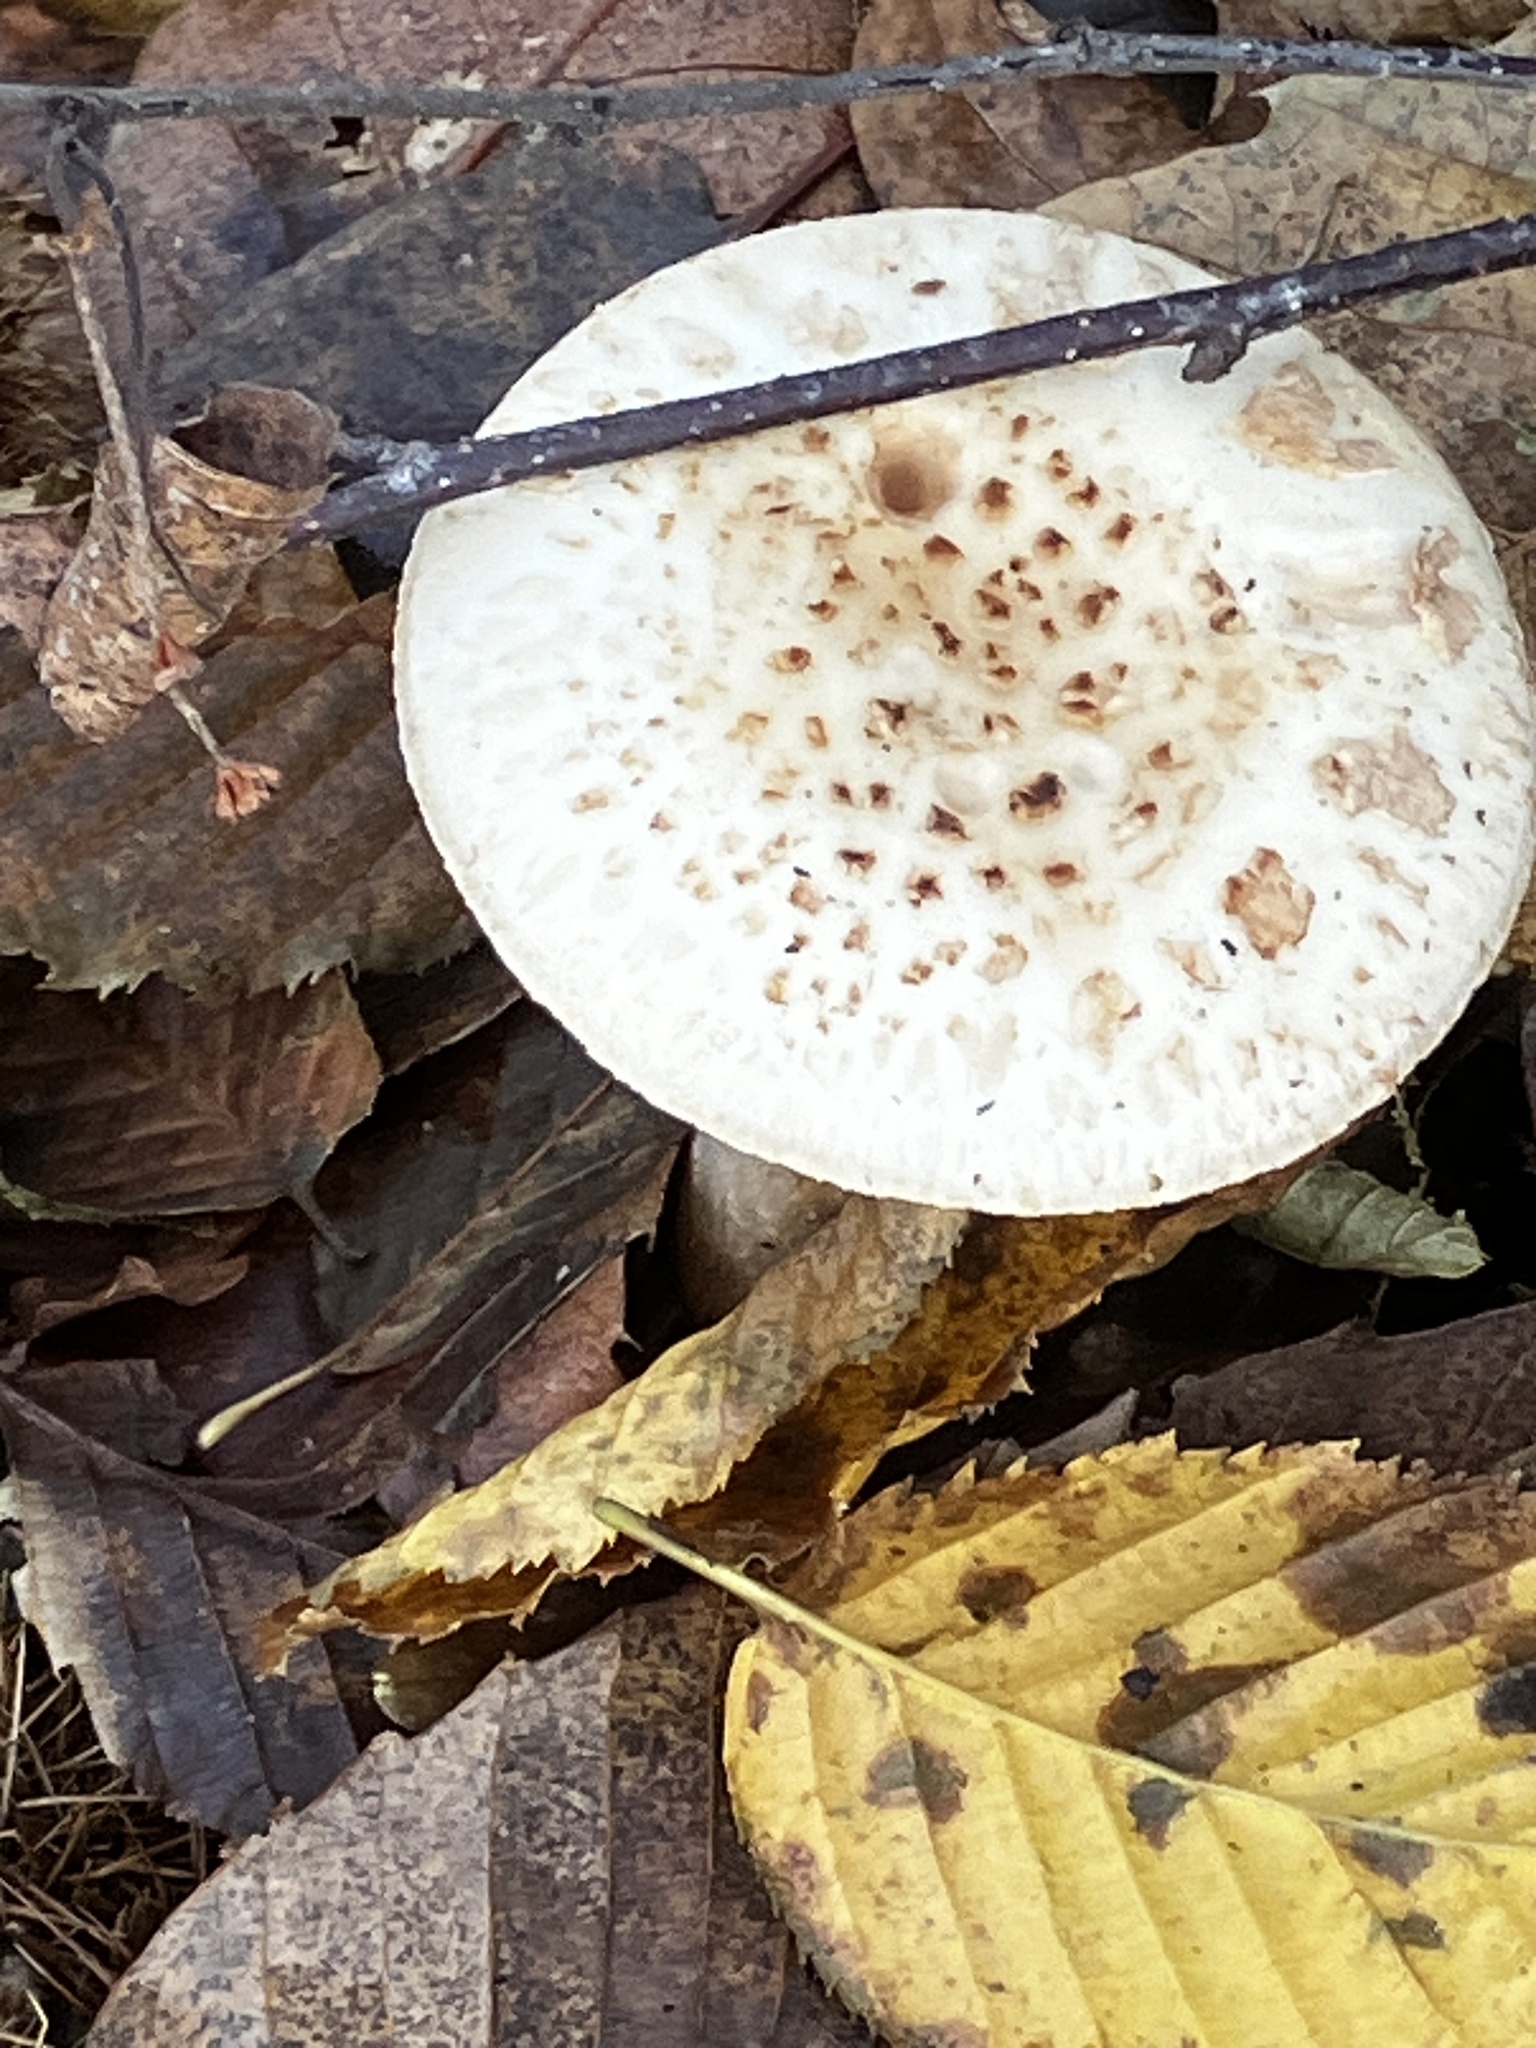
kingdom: Fungi
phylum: Basidiomycota
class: Agaricomycetes
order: Agaricales
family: Amanitaceae
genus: Amanita
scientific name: Amanita citrina
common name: False death-cap
